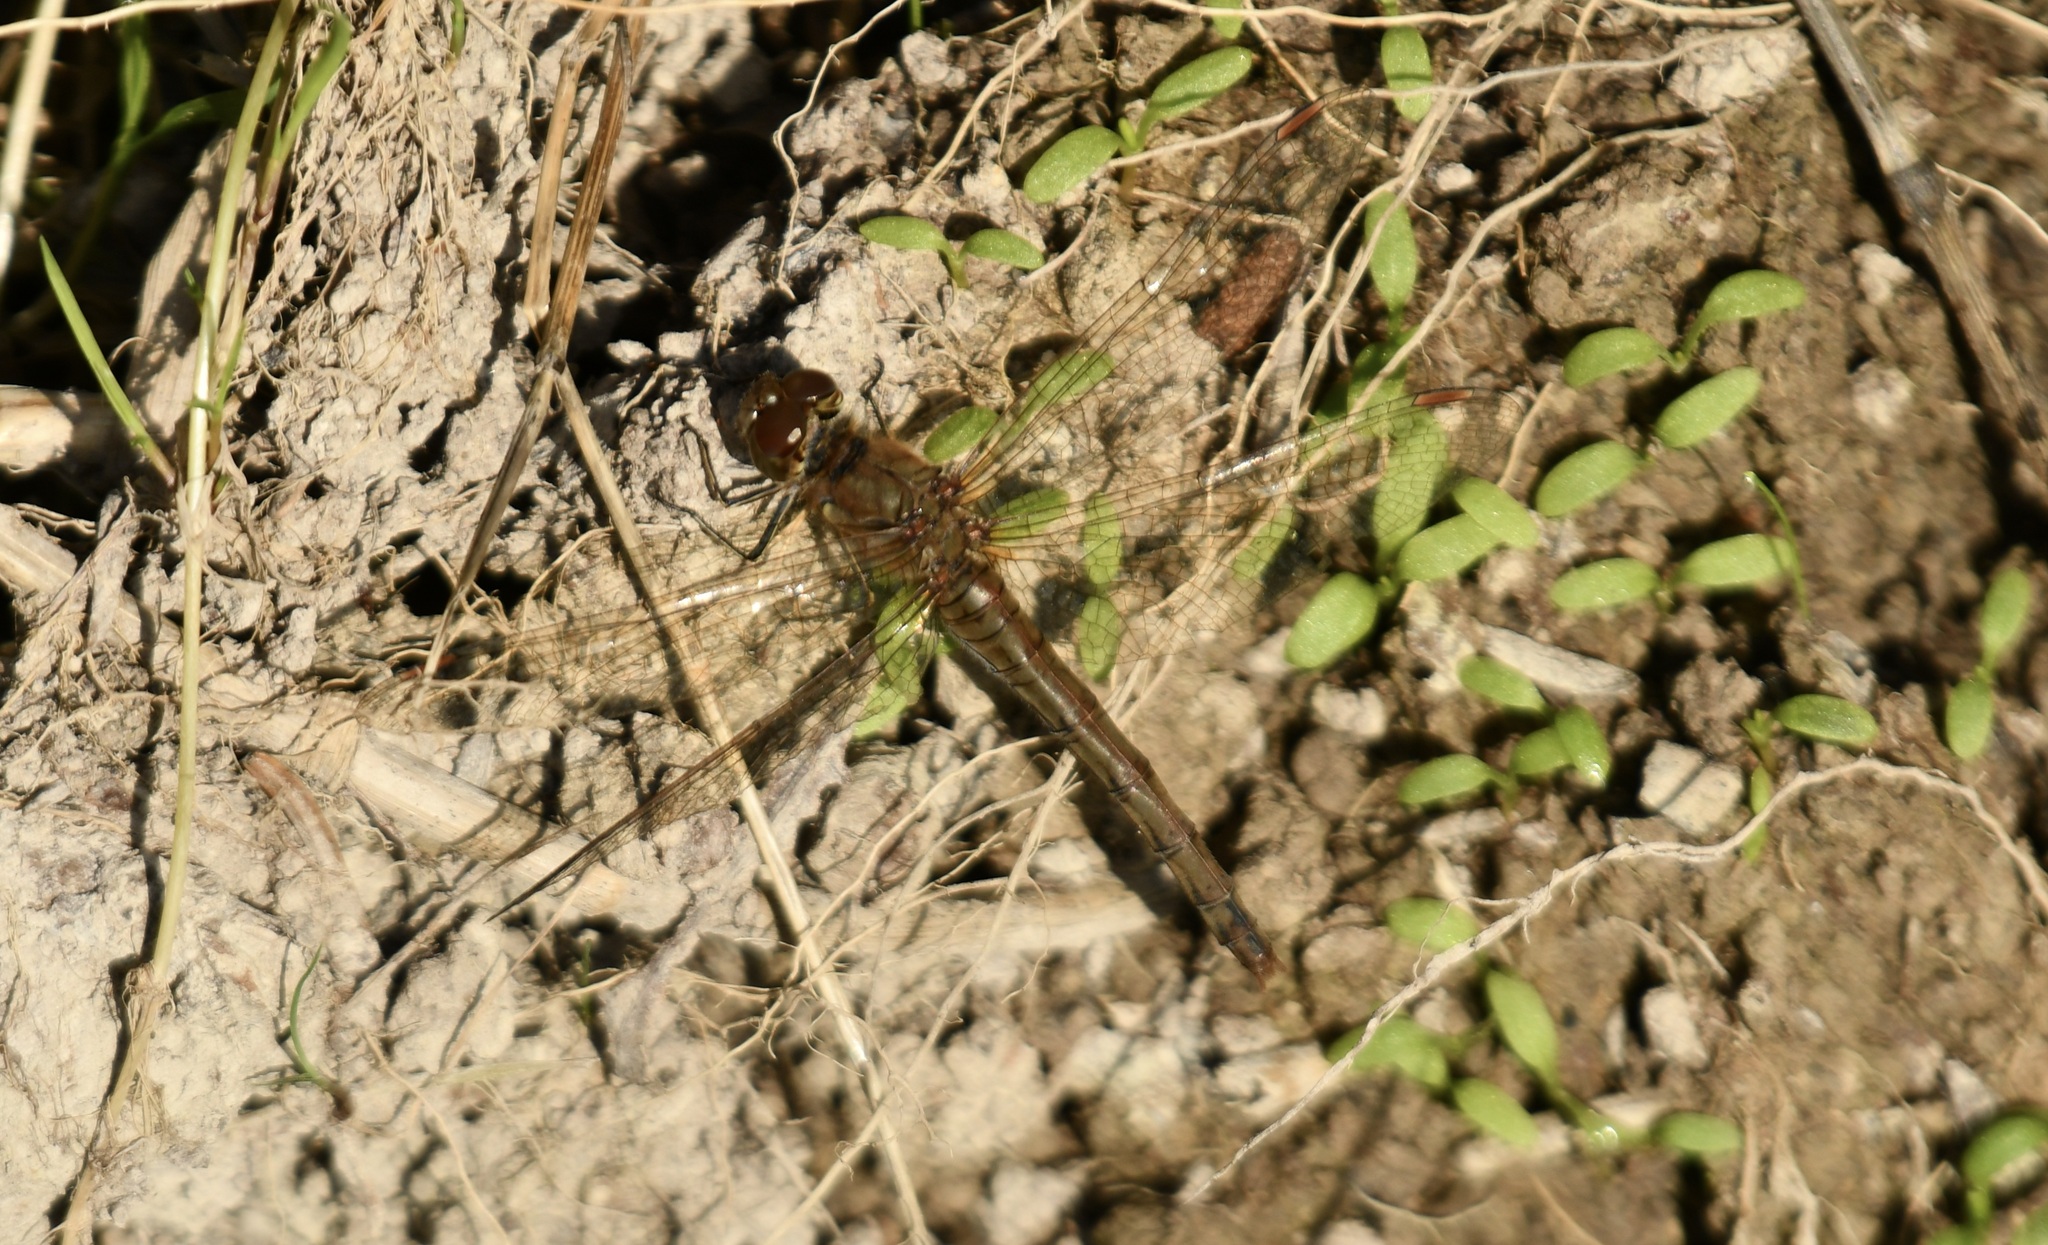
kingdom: Animalia
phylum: Arthropoda
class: Insecta
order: Odonata
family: Libellulidae
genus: Sympetrum
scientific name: Sympetrum striolatum
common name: Common darter
